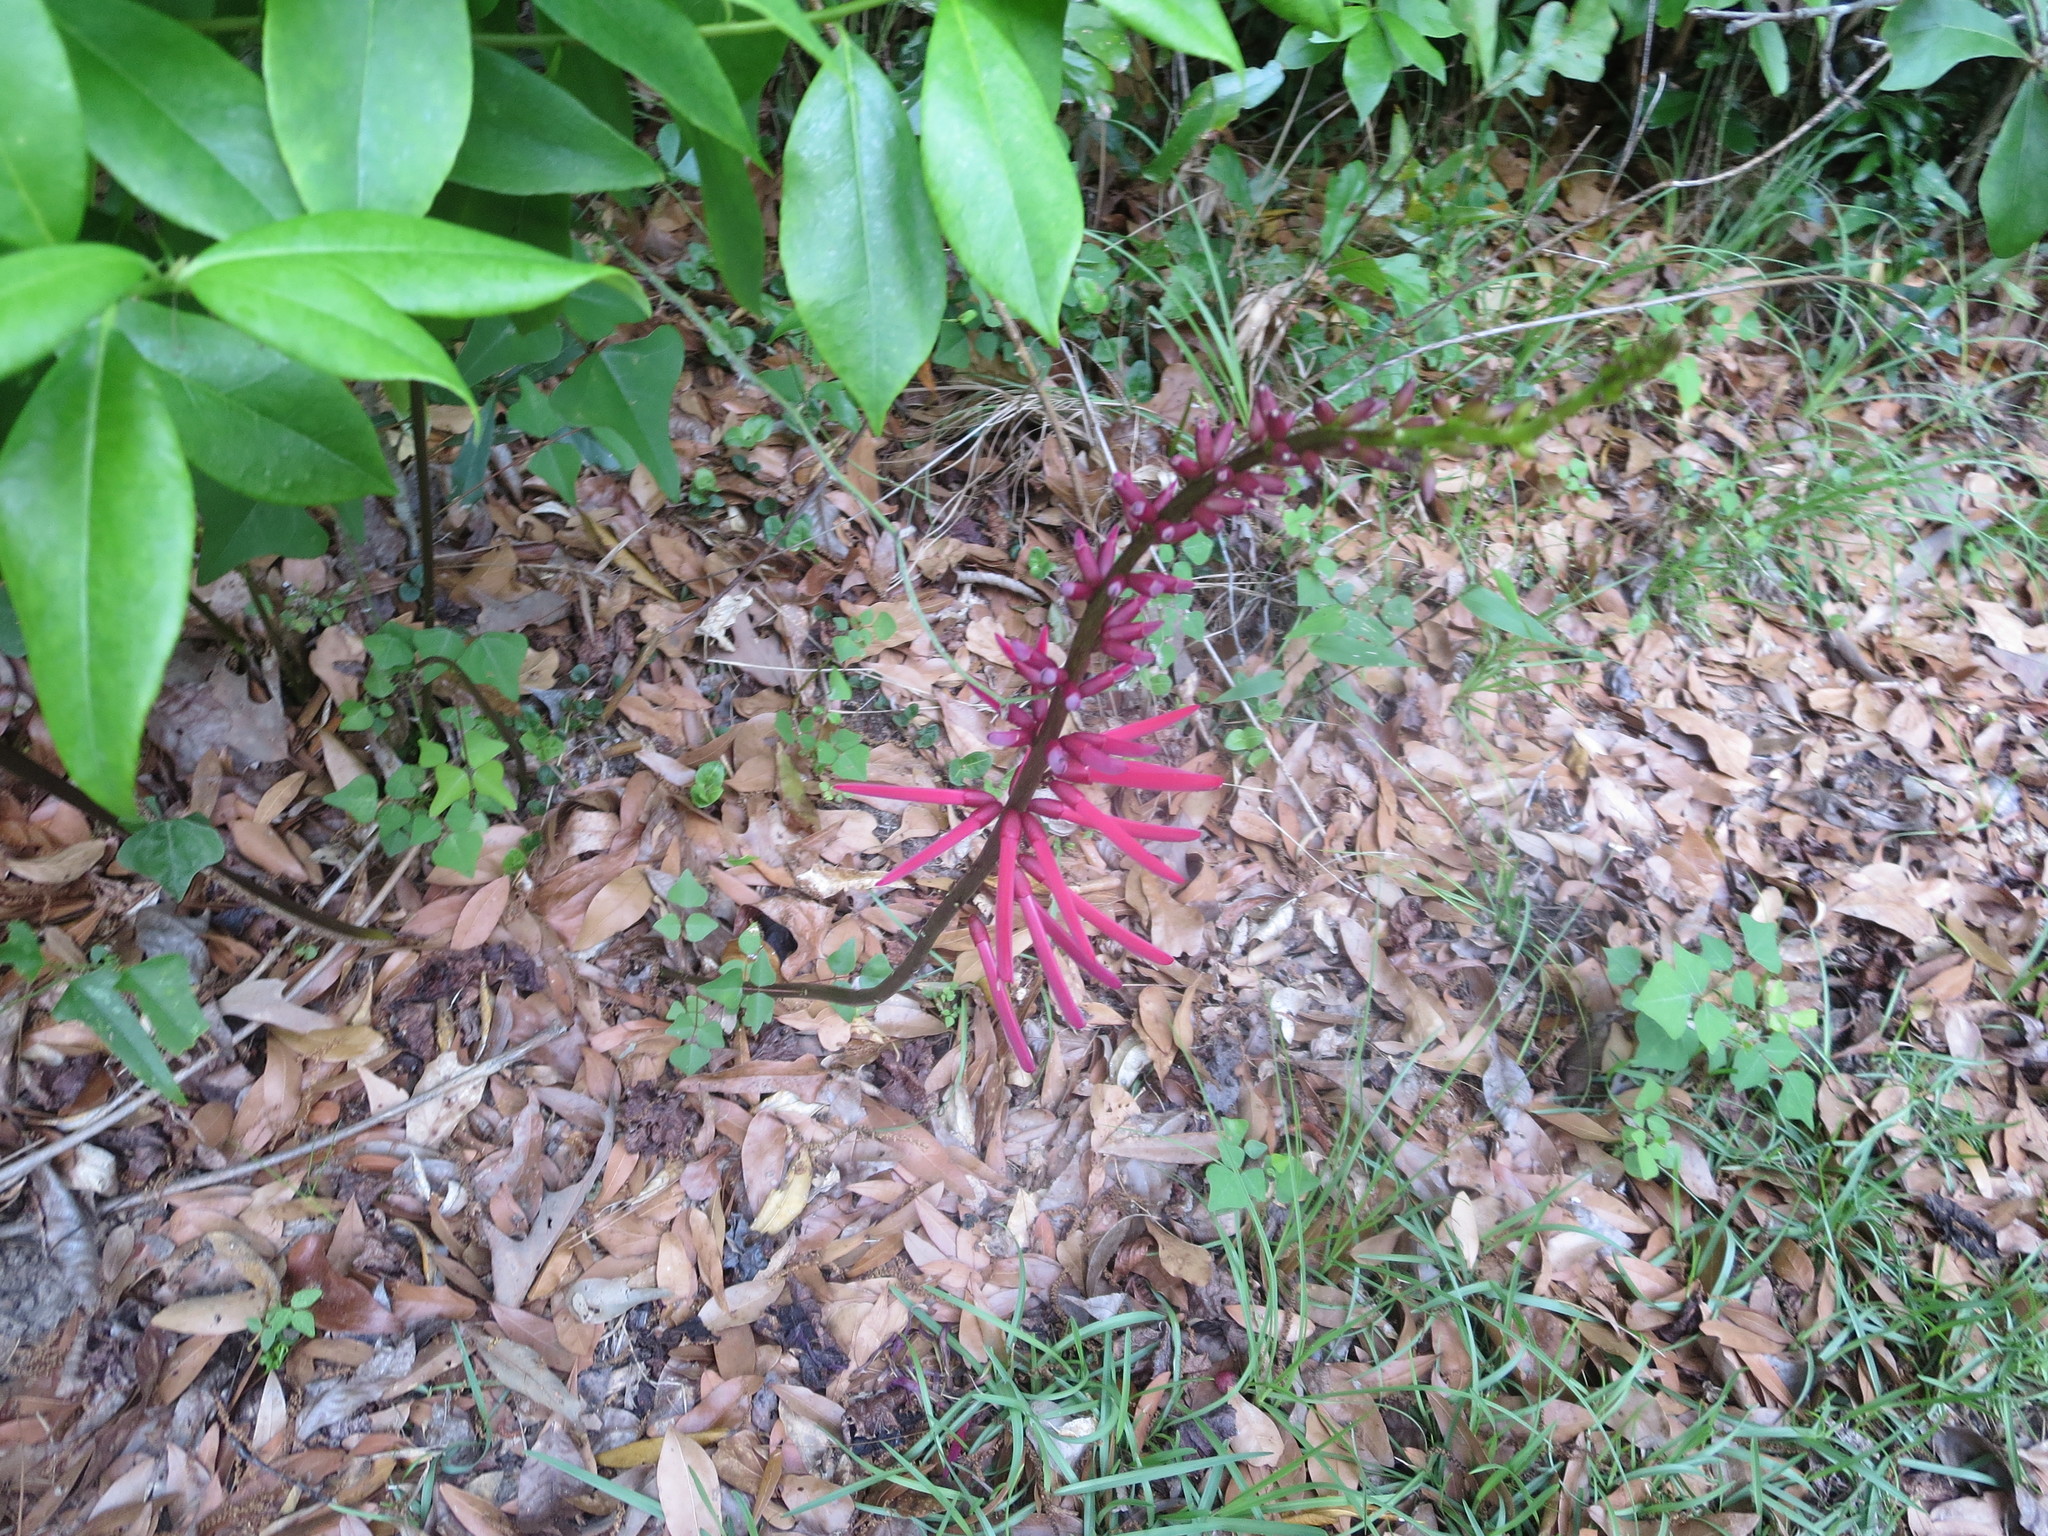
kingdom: Plantae
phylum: Tracheophyta
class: Magnoliopsida
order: Fabales
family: Fabaceae
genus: Erythrina
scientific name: Erythrina herbacea
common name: Coral-bean
